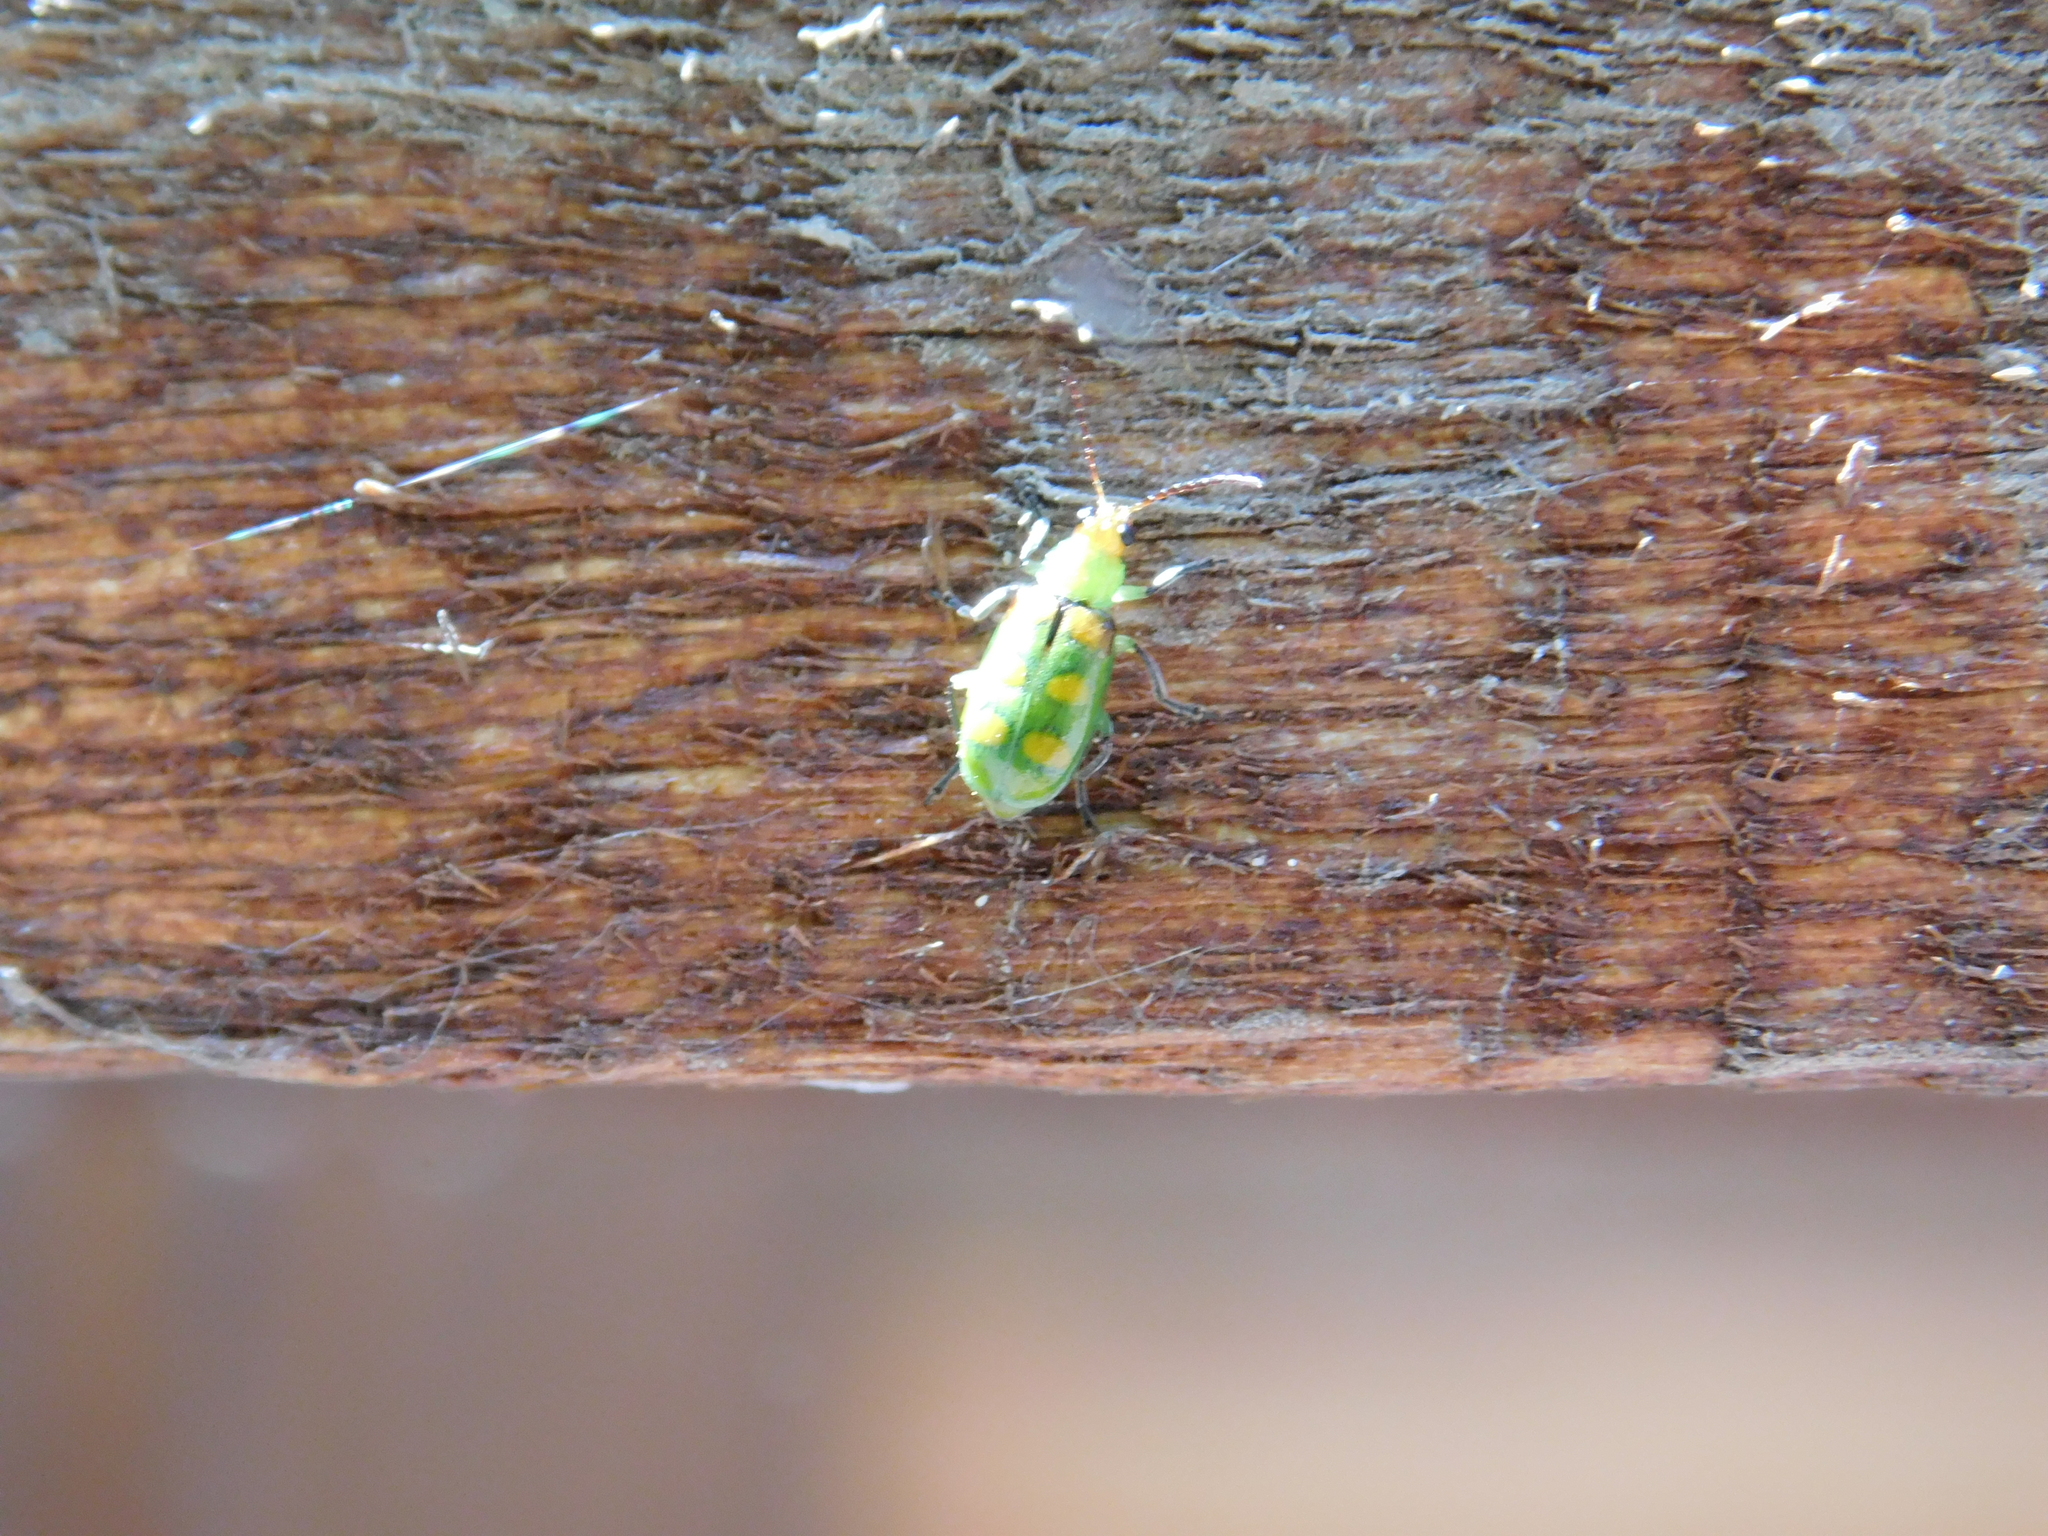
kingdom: Animalia
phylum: Arthropoda
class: Insecta
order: Coleoptera
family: Chrysomelidae
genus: Diabrotica
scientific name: Diabrotica speciosa
